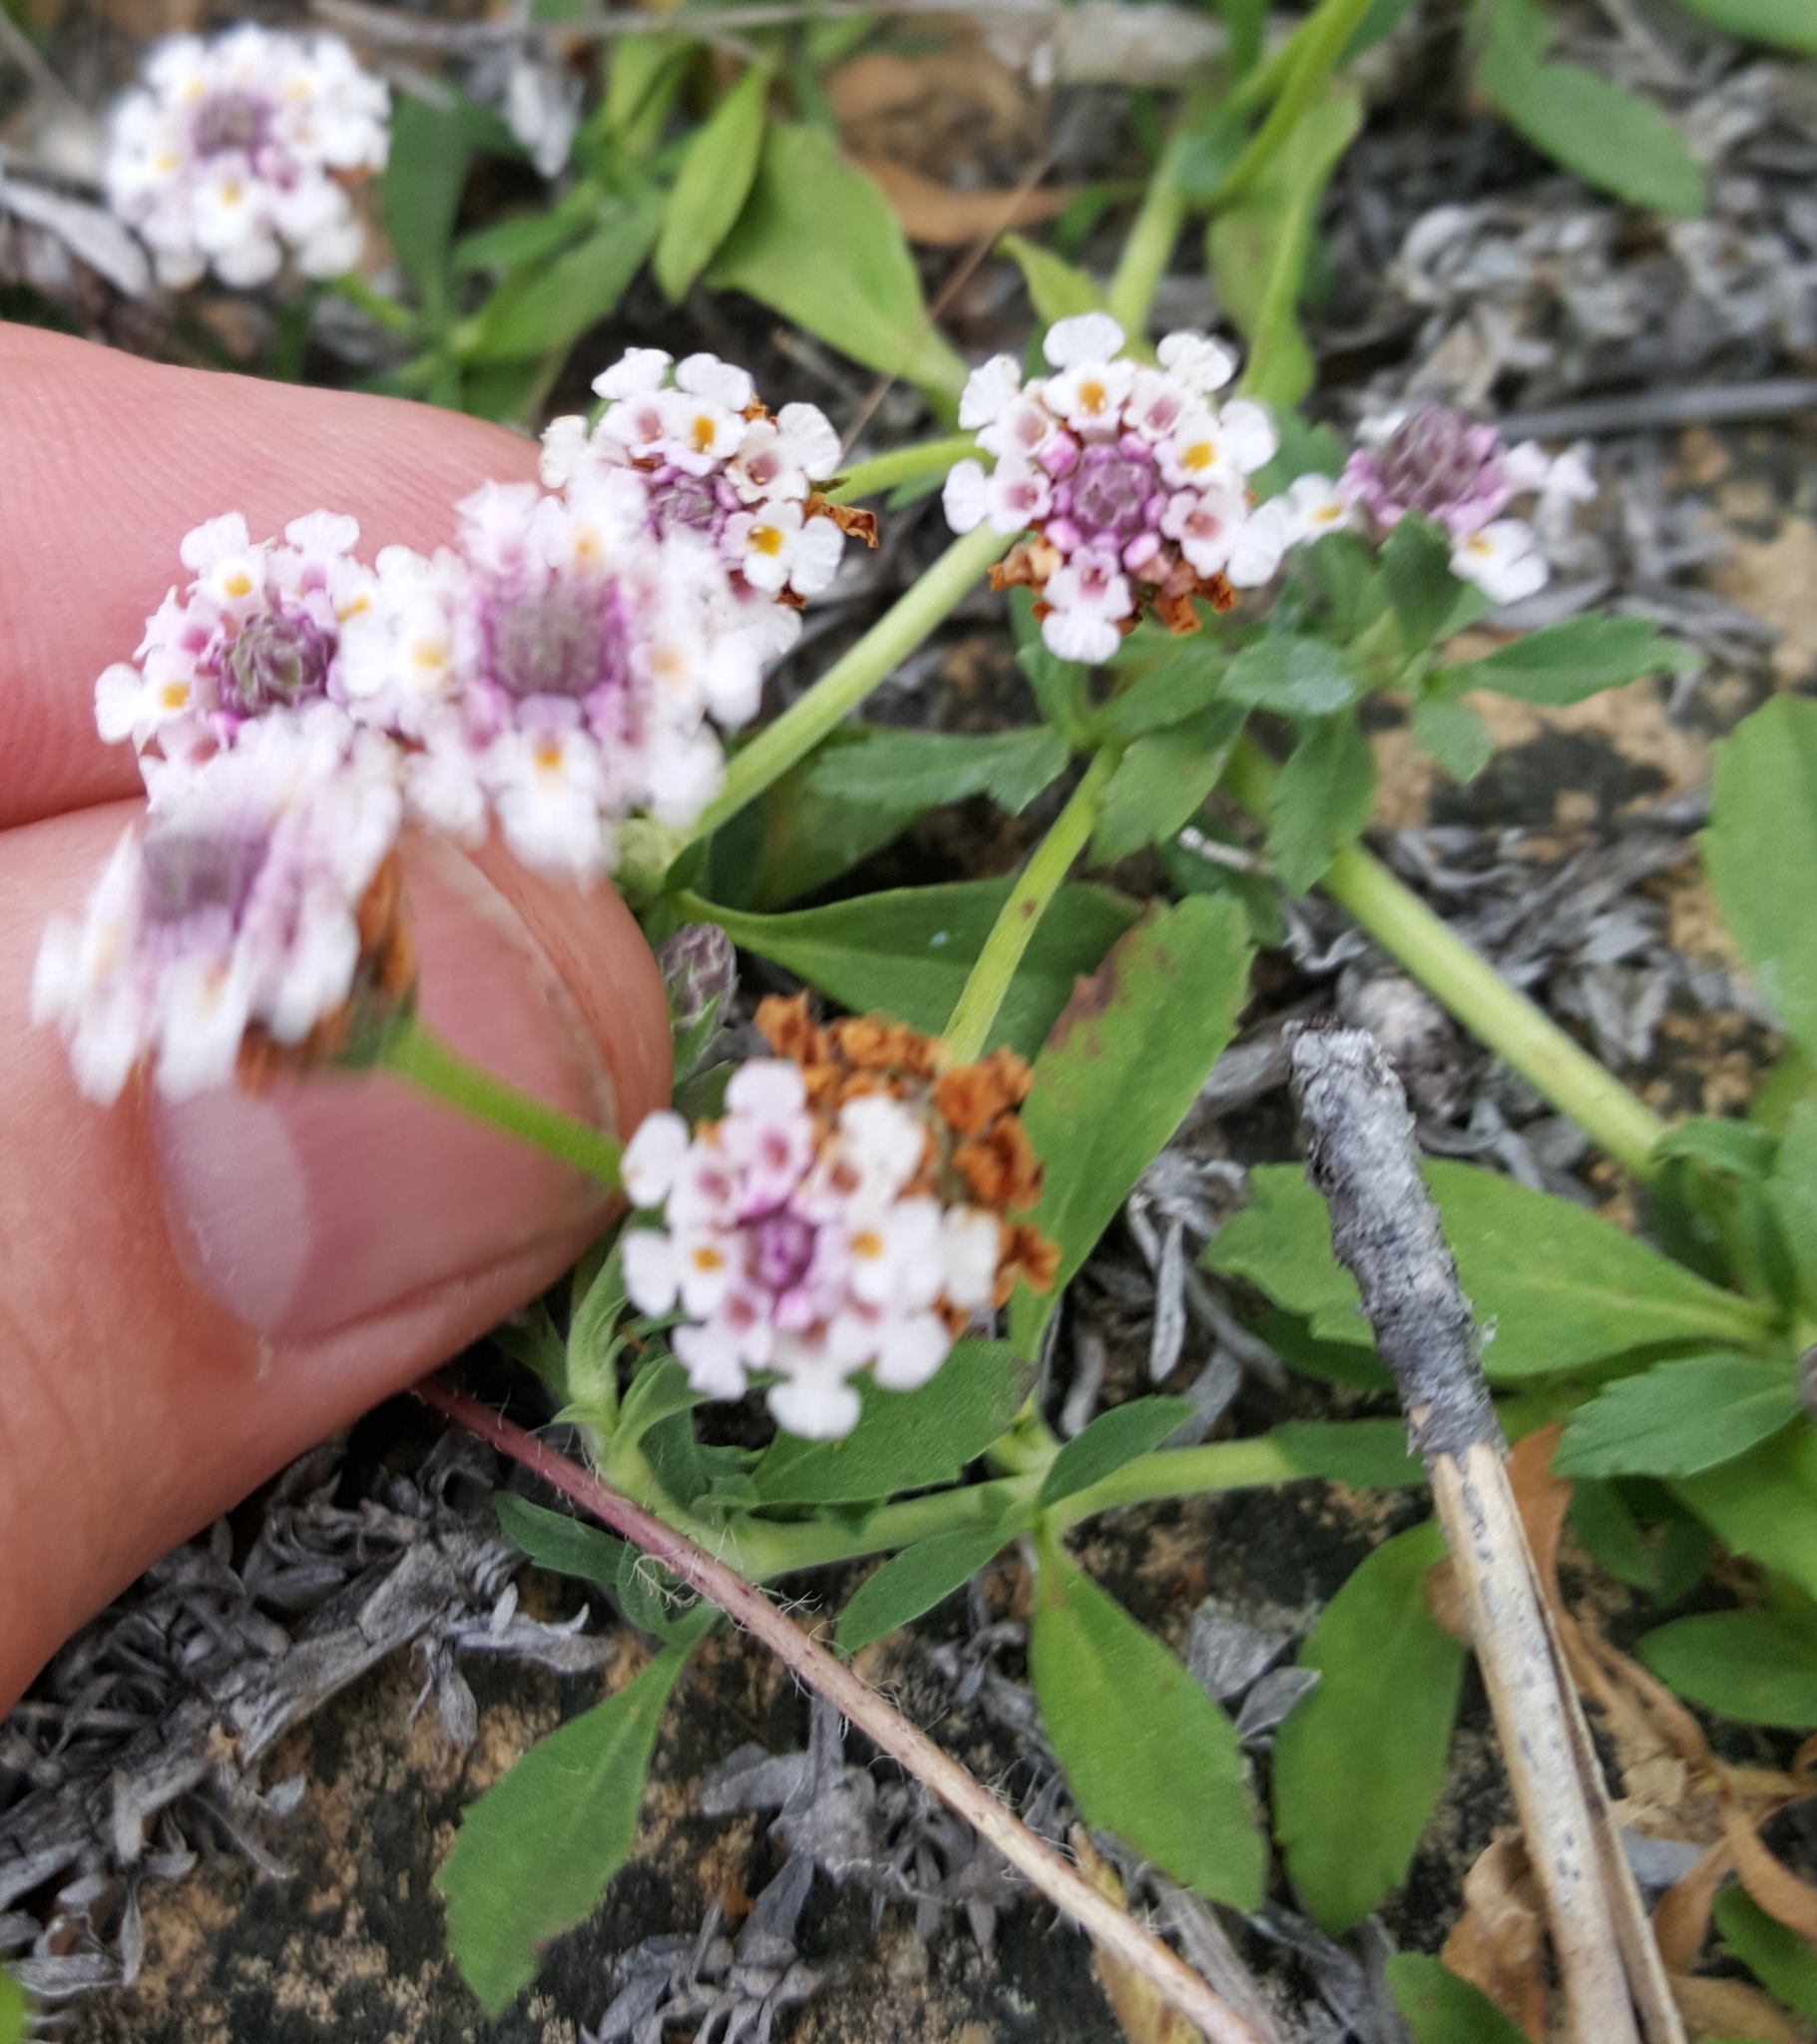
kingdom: Plantae
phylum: Tracheophyta
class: Magnoliopsida
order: Lamiales
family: Verbenaceae
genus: Phyla
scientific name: Phyla nodiflora
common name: Frogfruit
